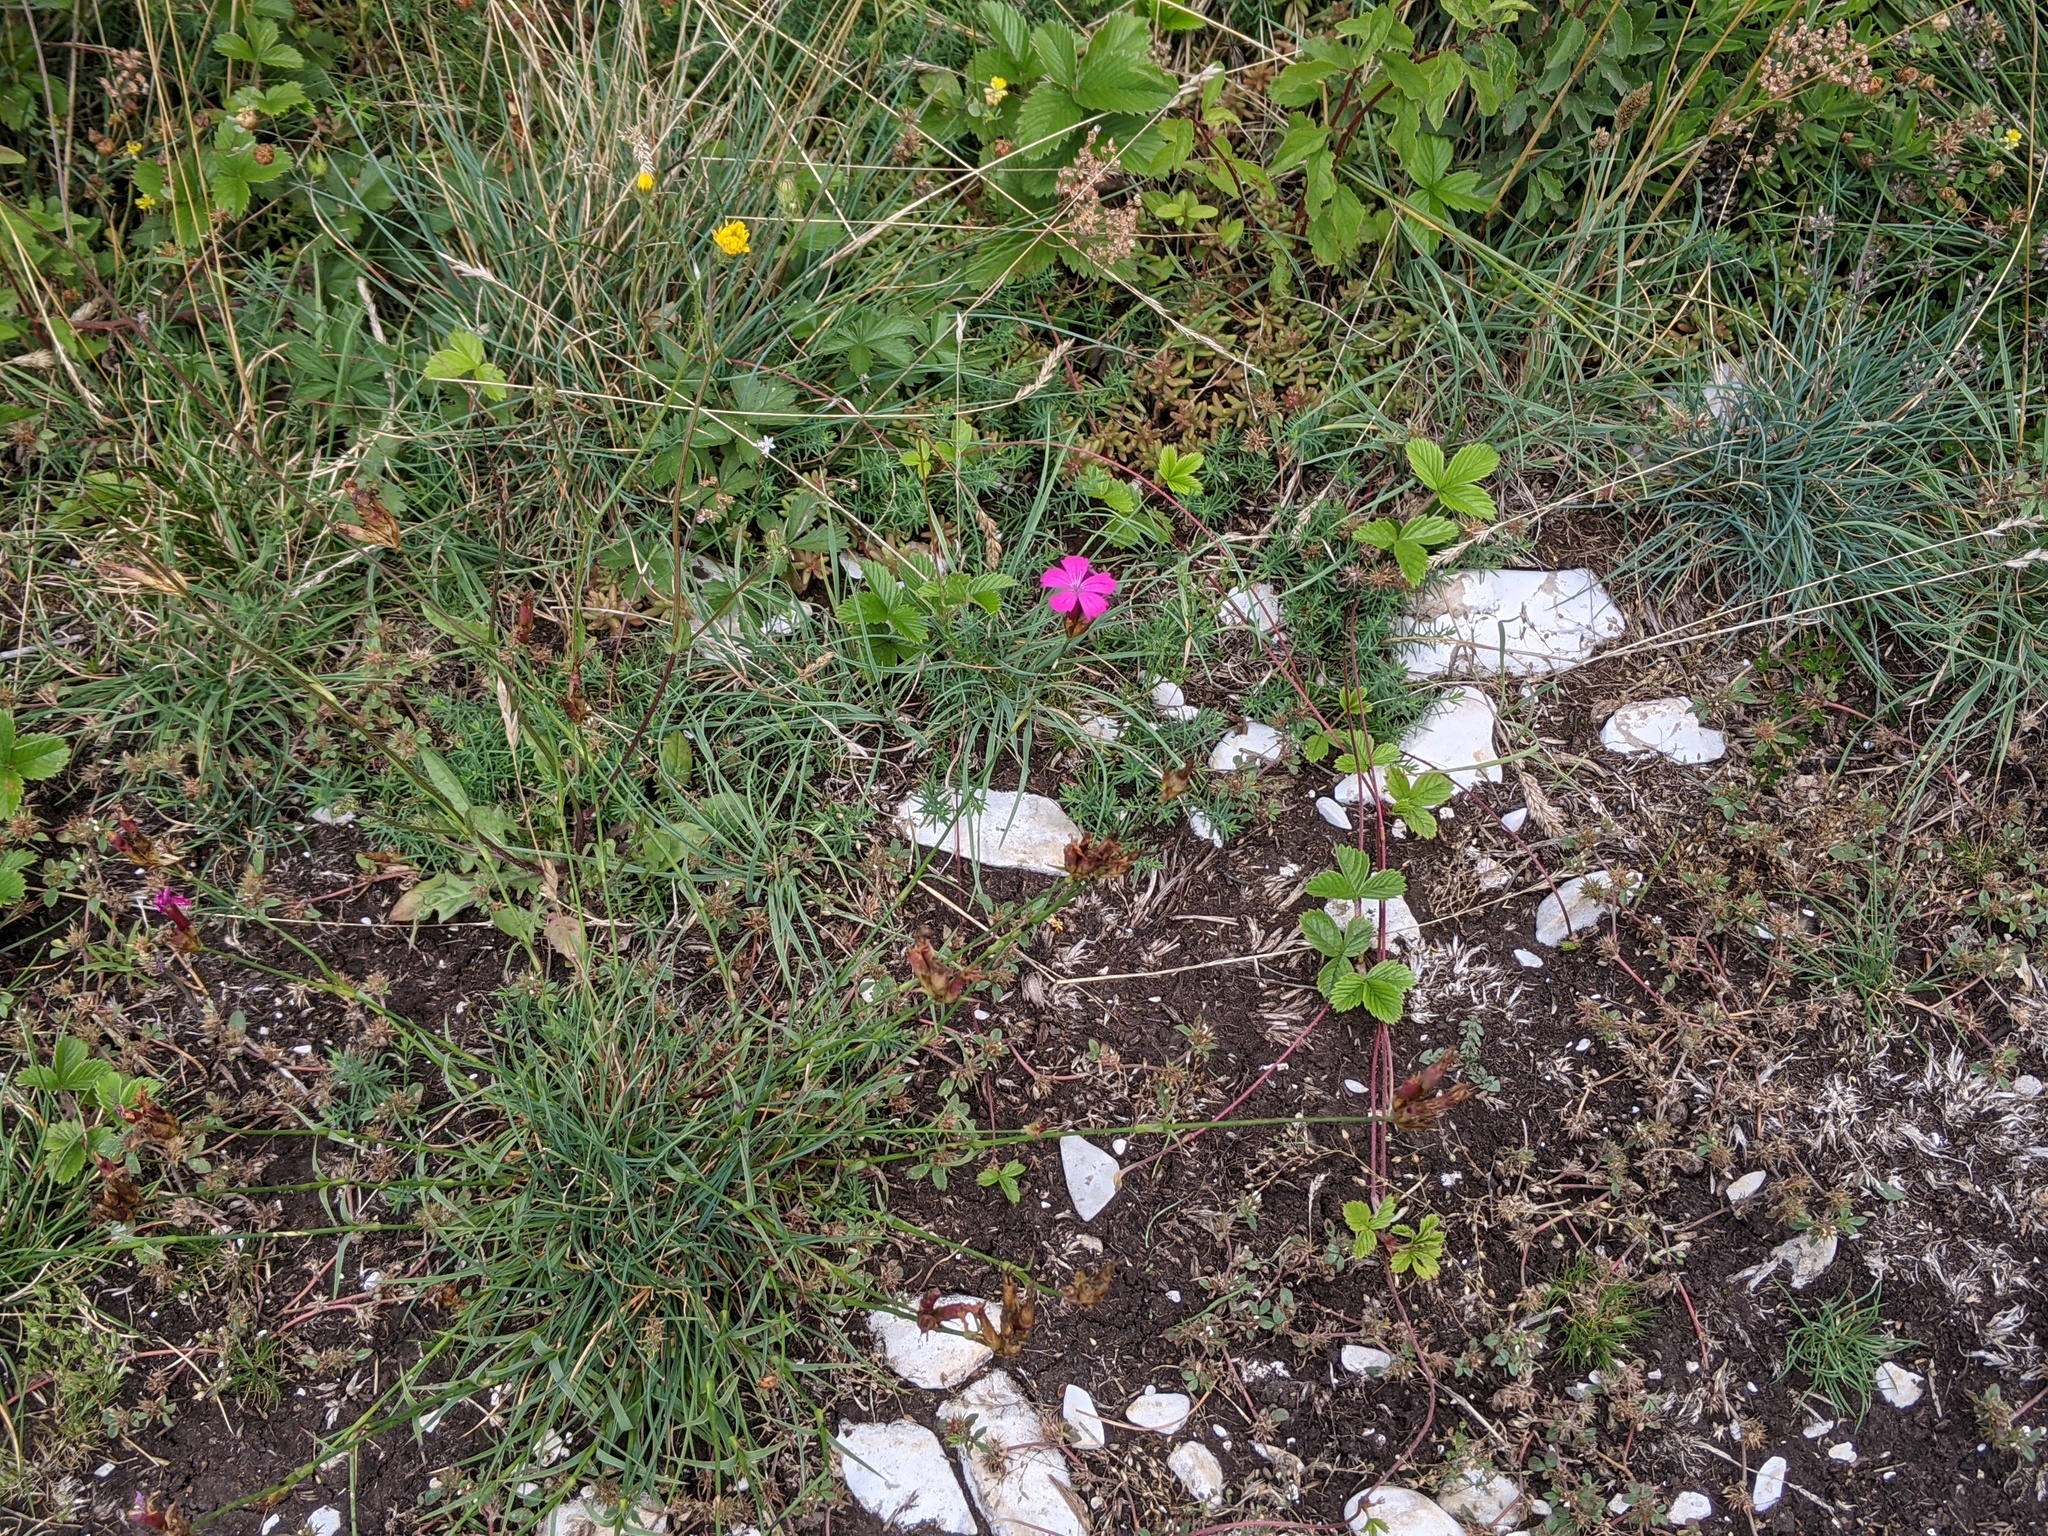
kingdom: Plantae
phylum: Tracheophyta
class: Magnoliopsida
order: Caryophyllales
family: Caryophyllaceae
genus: Dianthus
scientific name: Dianthus carthusianorum
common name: Carthusian pink
